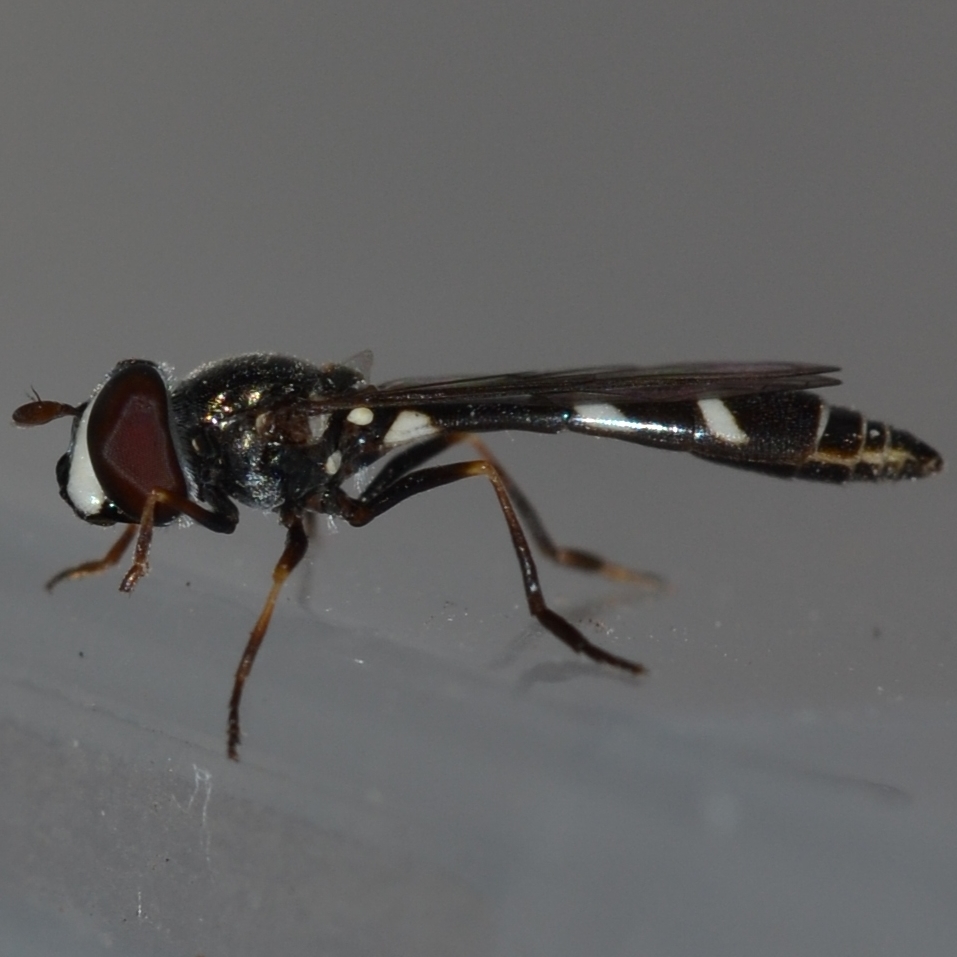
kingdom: Animalia
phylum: Arthropoda
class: Insecta
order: Diptera
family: Syrphidae
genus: Dioprosopa
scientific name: Dioprosopa clavatus
